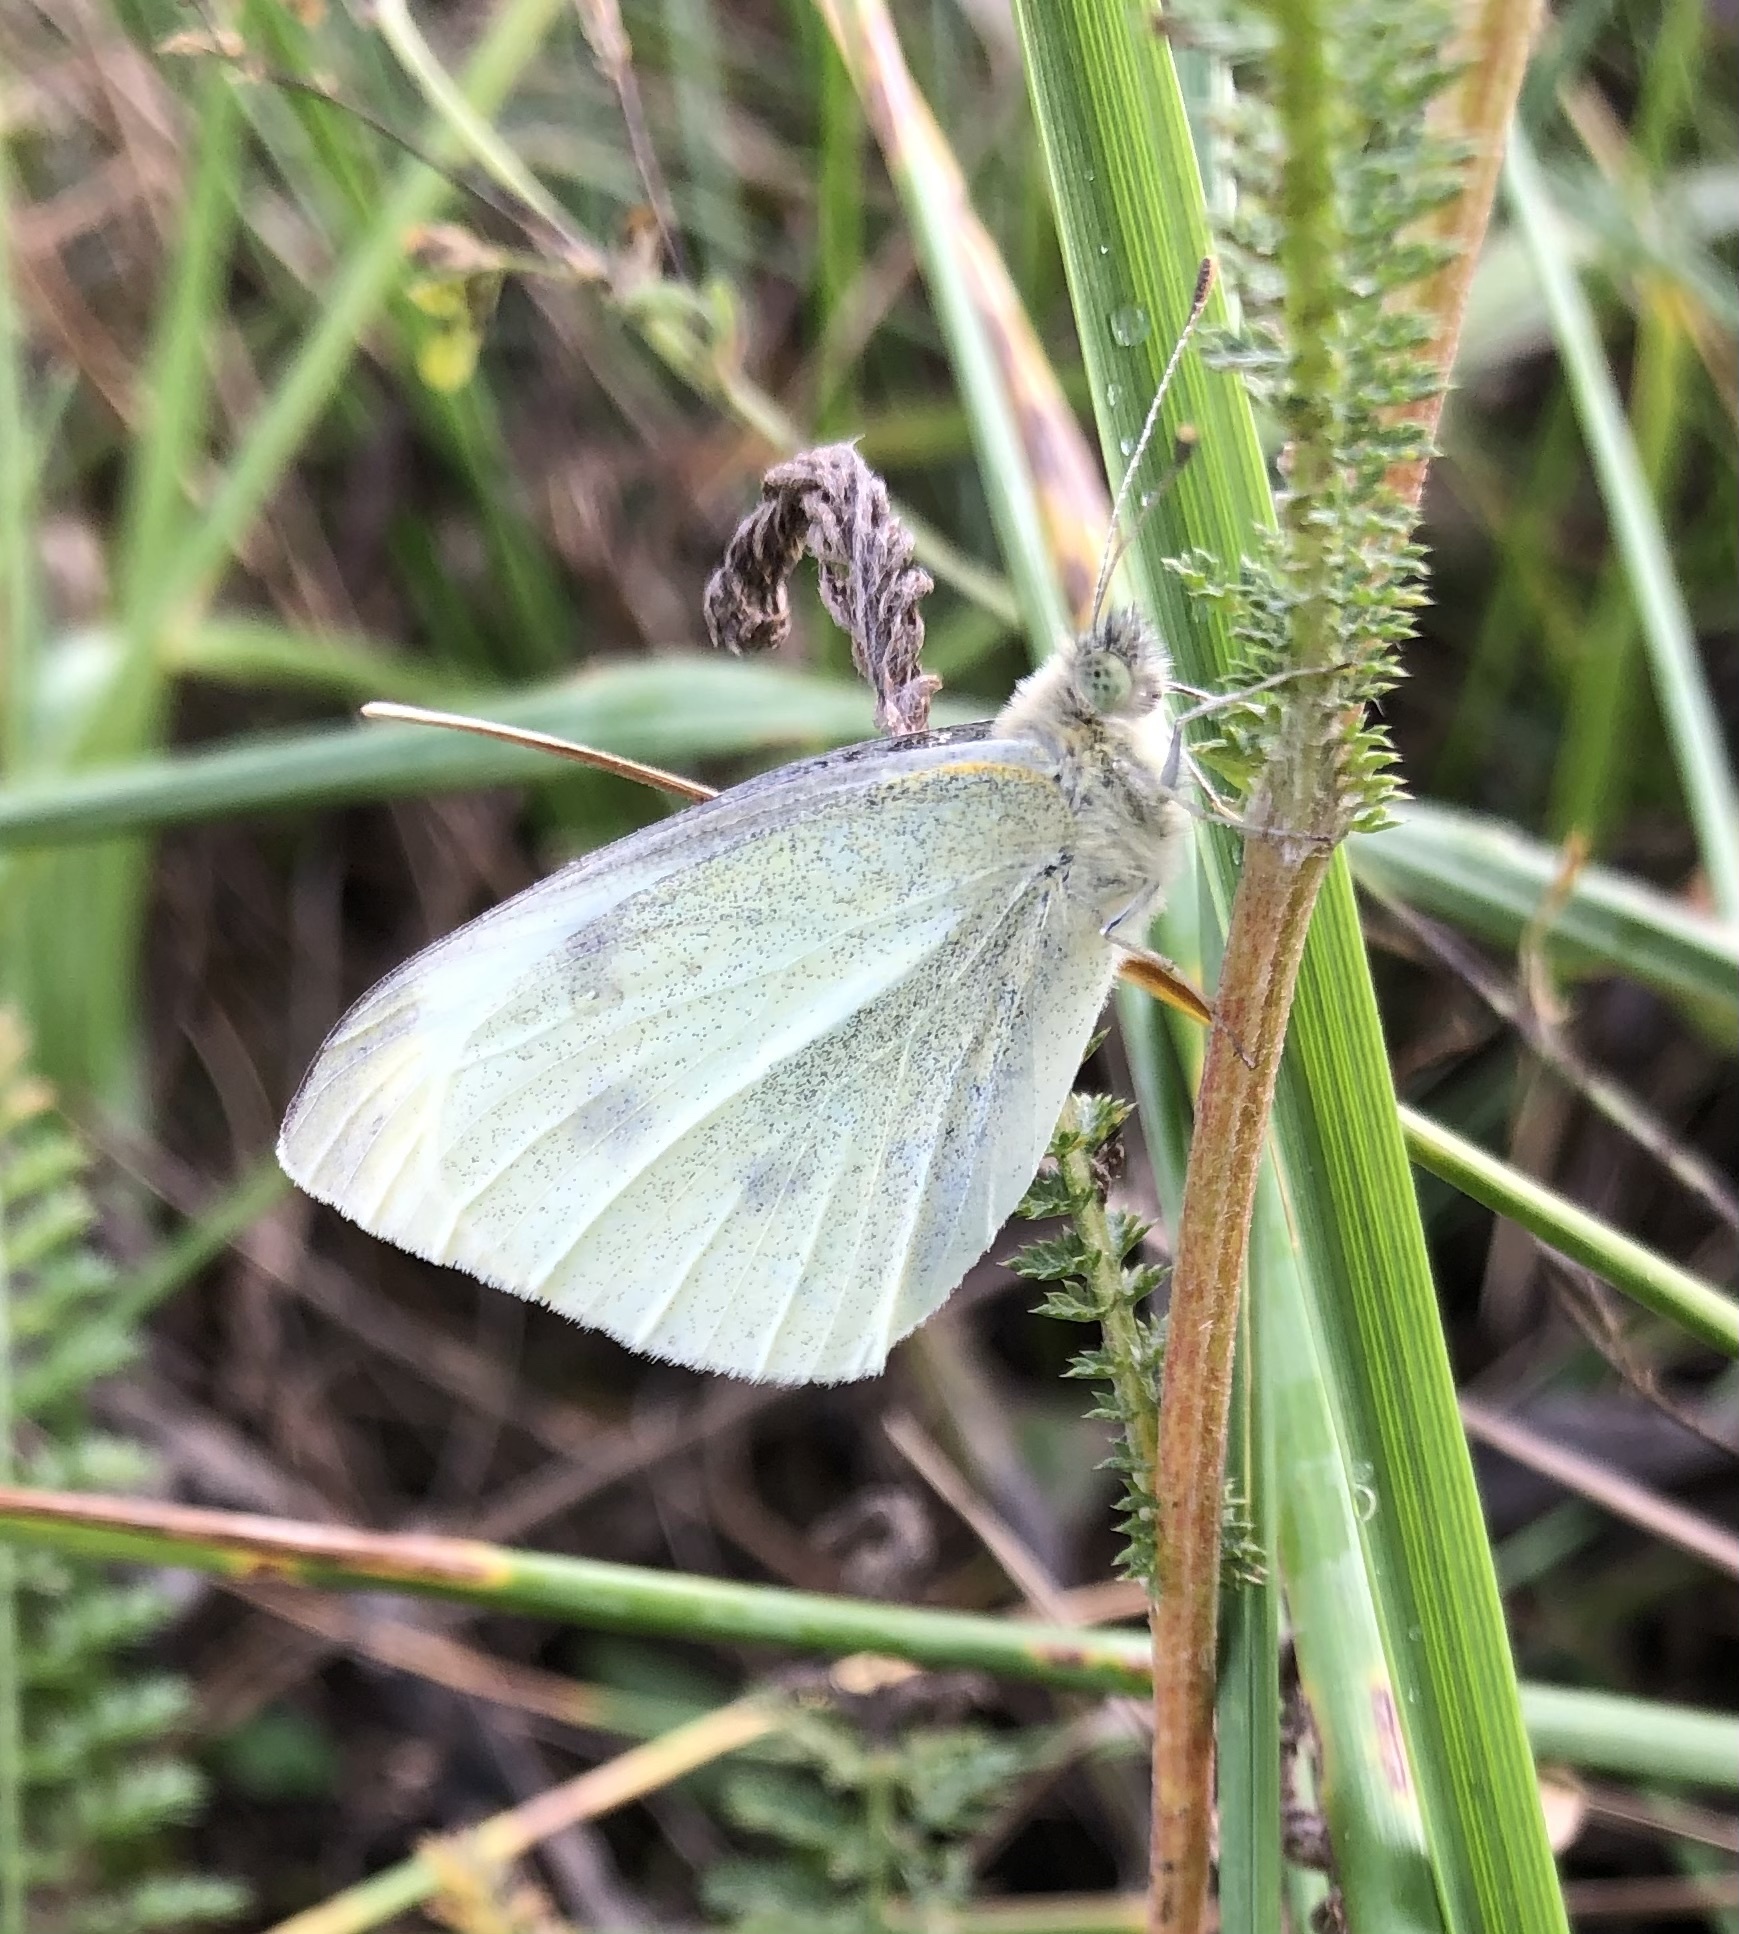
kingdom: Animalia
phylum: Arthropoda
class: Insecta
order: Lepidoptera
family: Pieridae
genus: Pieris
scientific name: Pieris rapae
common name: Small white
